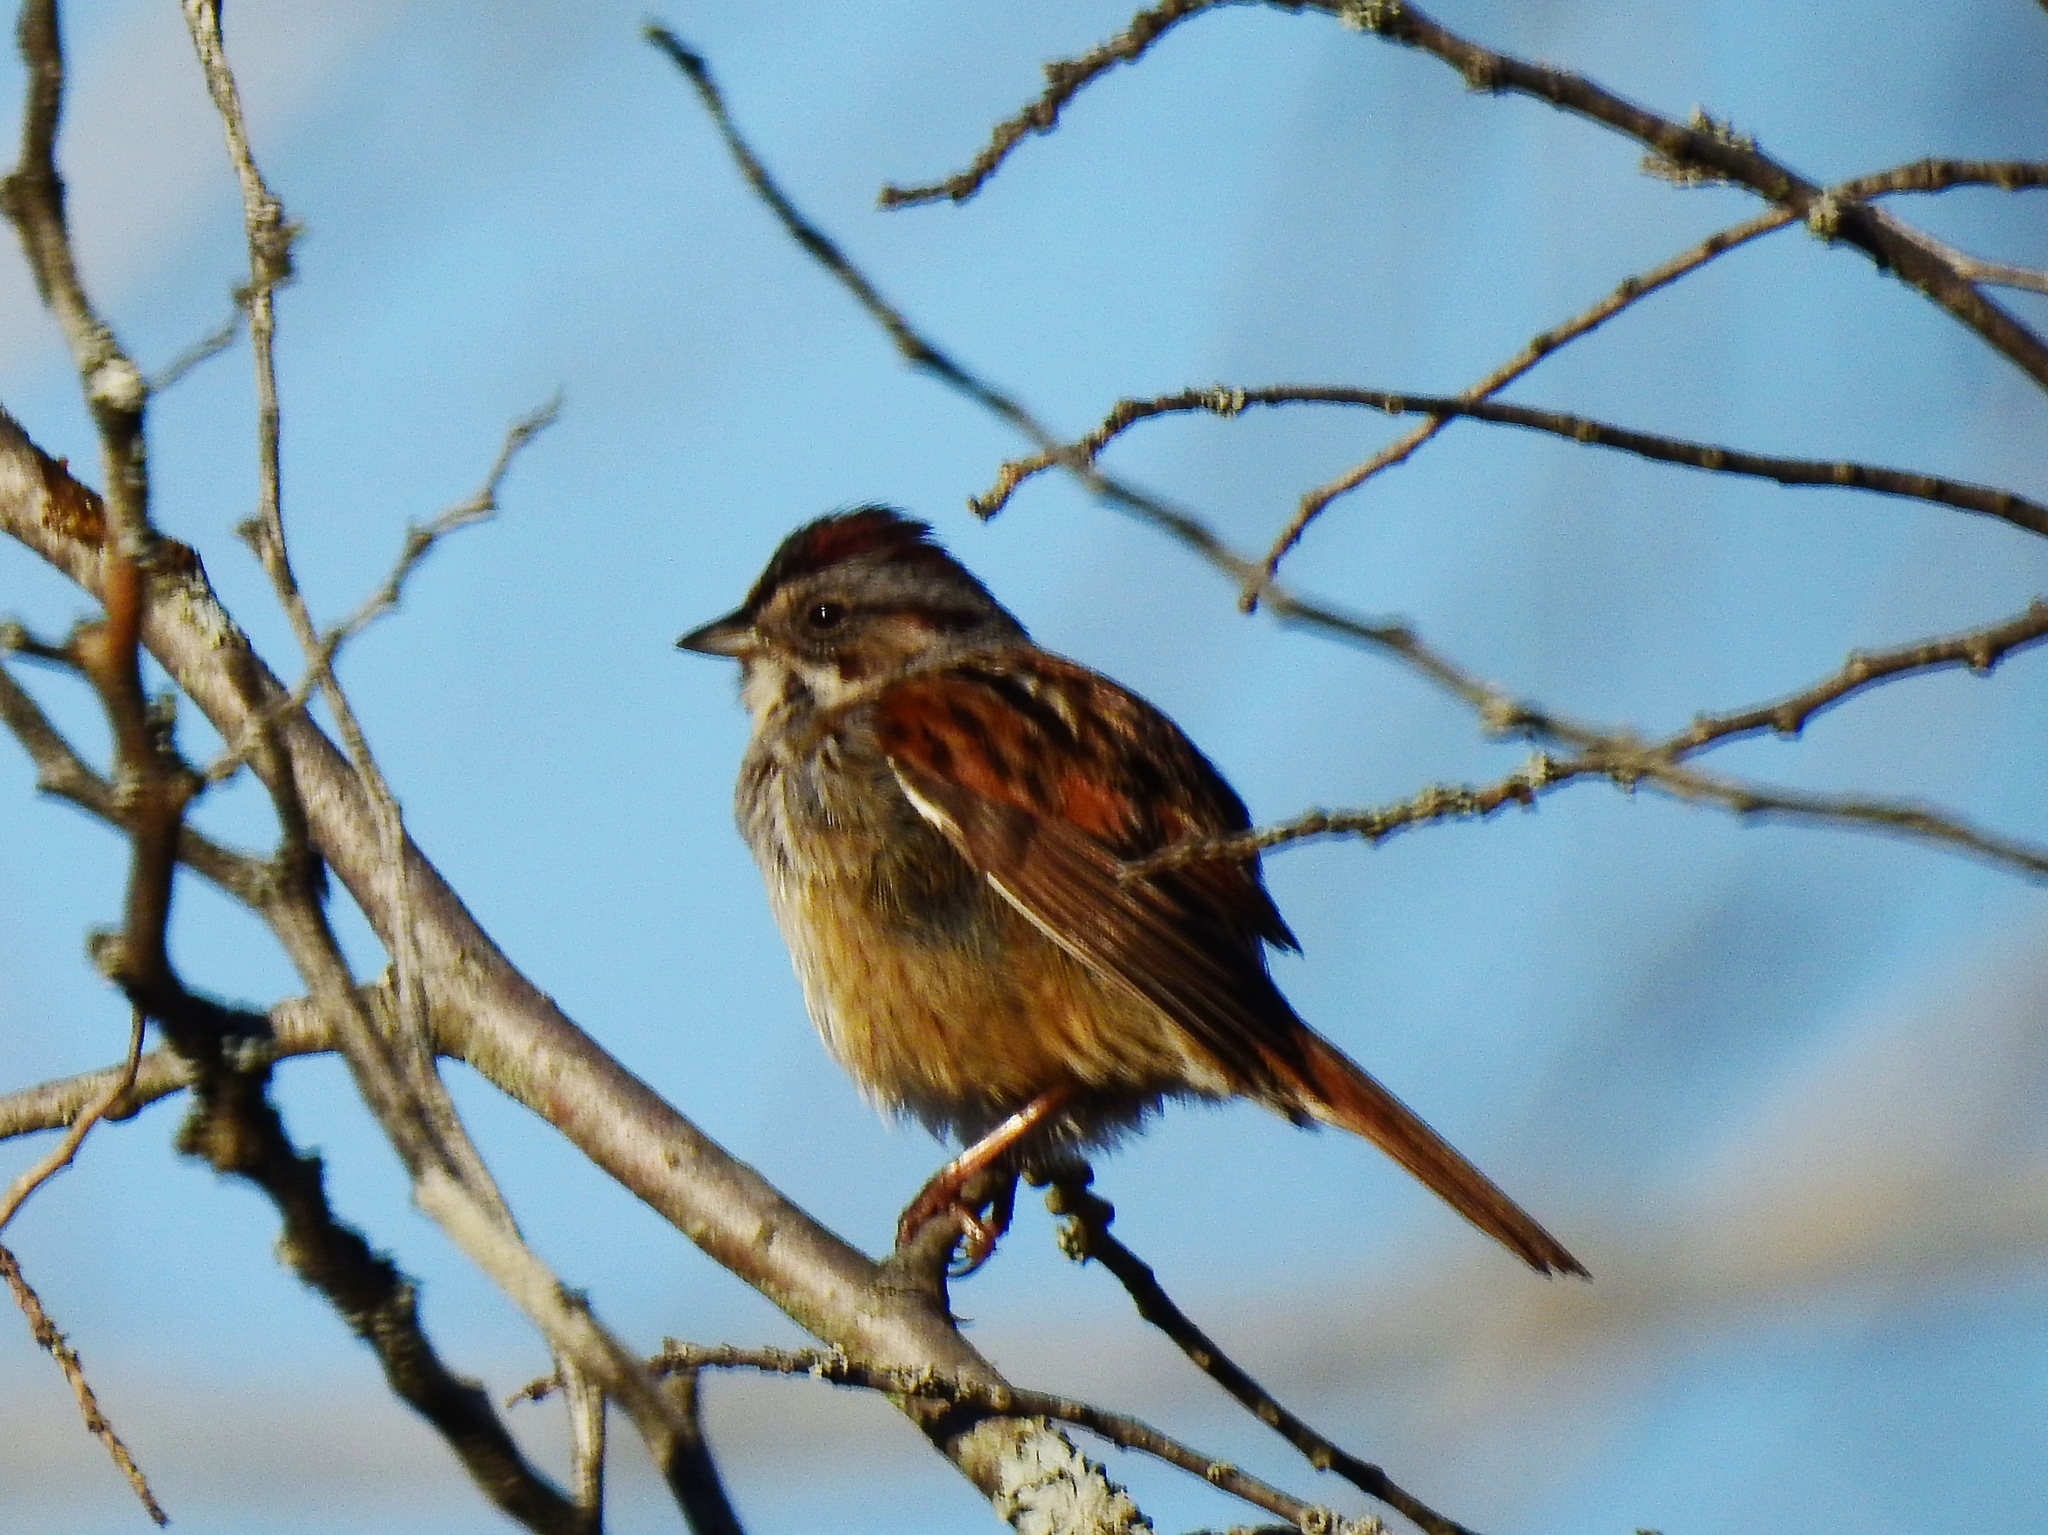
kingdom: Animalia
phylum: Chordata
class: Aves
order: Passeriformes
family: Passerellidae
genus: Melospiza
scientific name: Melospiza georgiana
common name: Swamp sparrow
